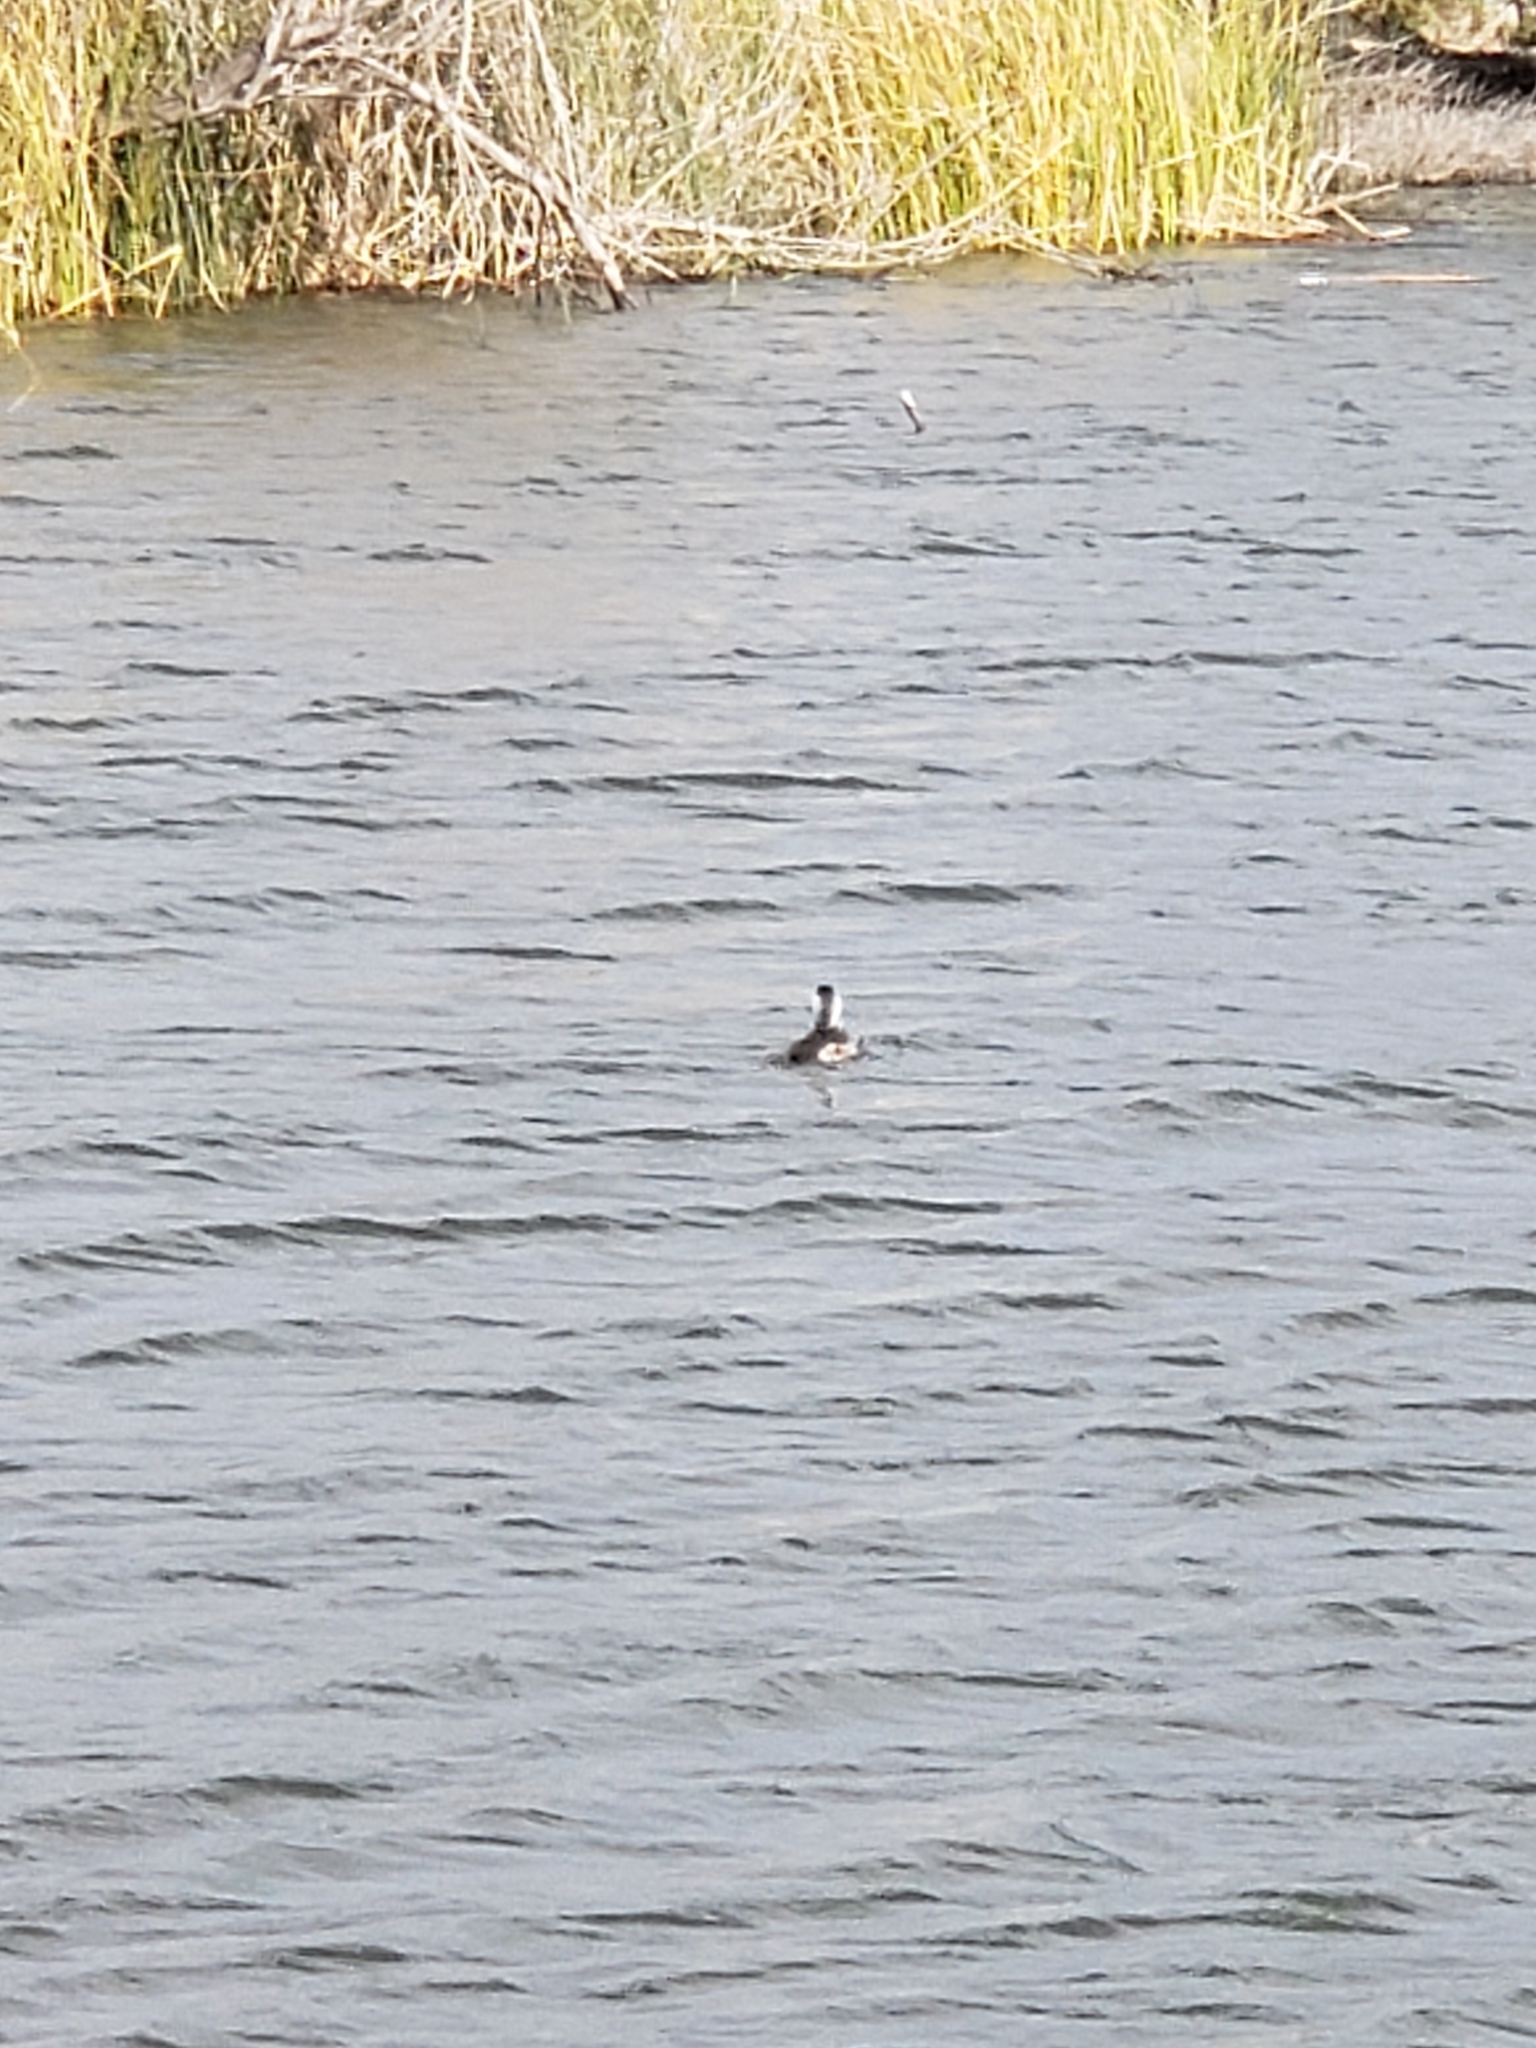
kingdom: Animalia
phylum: Chordata
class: Aves
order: Anseriformes
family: Anatidae
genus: Oxyura
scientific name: Oxyura jamaicensis
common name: Ruddy duck
